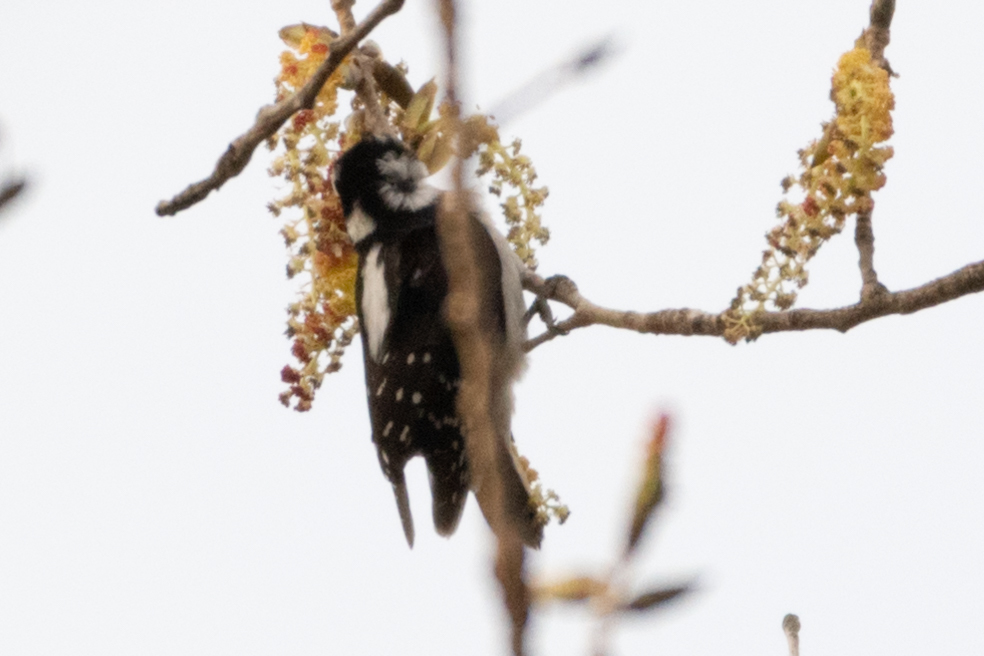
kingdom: Animalia
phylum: Chordata
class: Aves
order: Piciformes
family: Picidae
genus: Dryobates
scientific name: Dryobates pubescens
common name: Downy woodpecker
